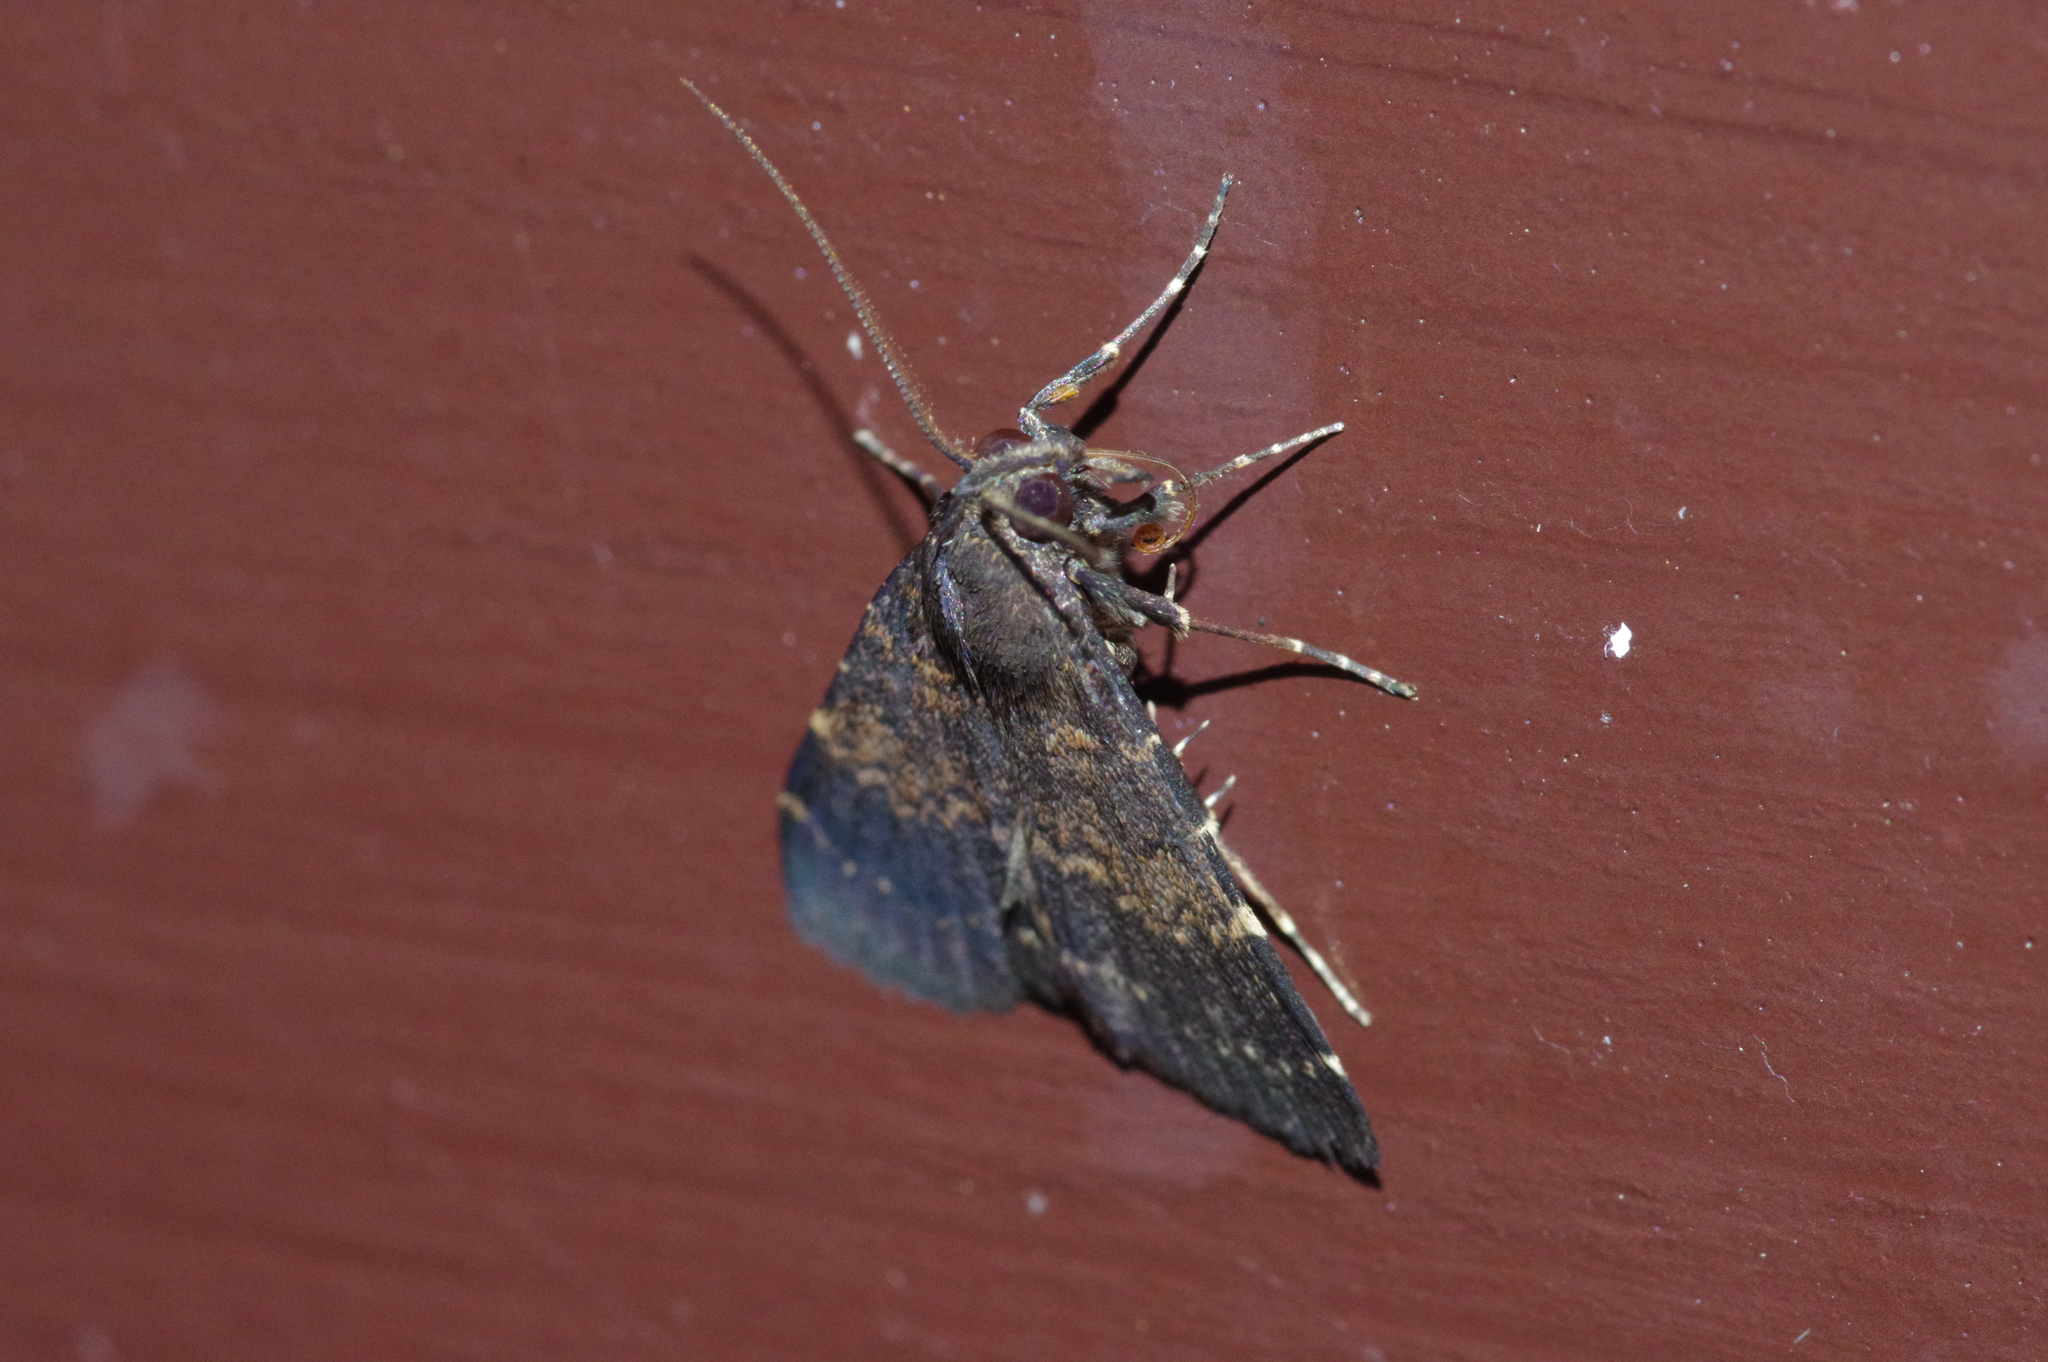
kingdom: Animalia
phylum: Arthropoda
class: Insecta
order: Lepidoptera
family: Erebidae
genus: Hydrillodes
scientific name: Hydrillodes lentalis
